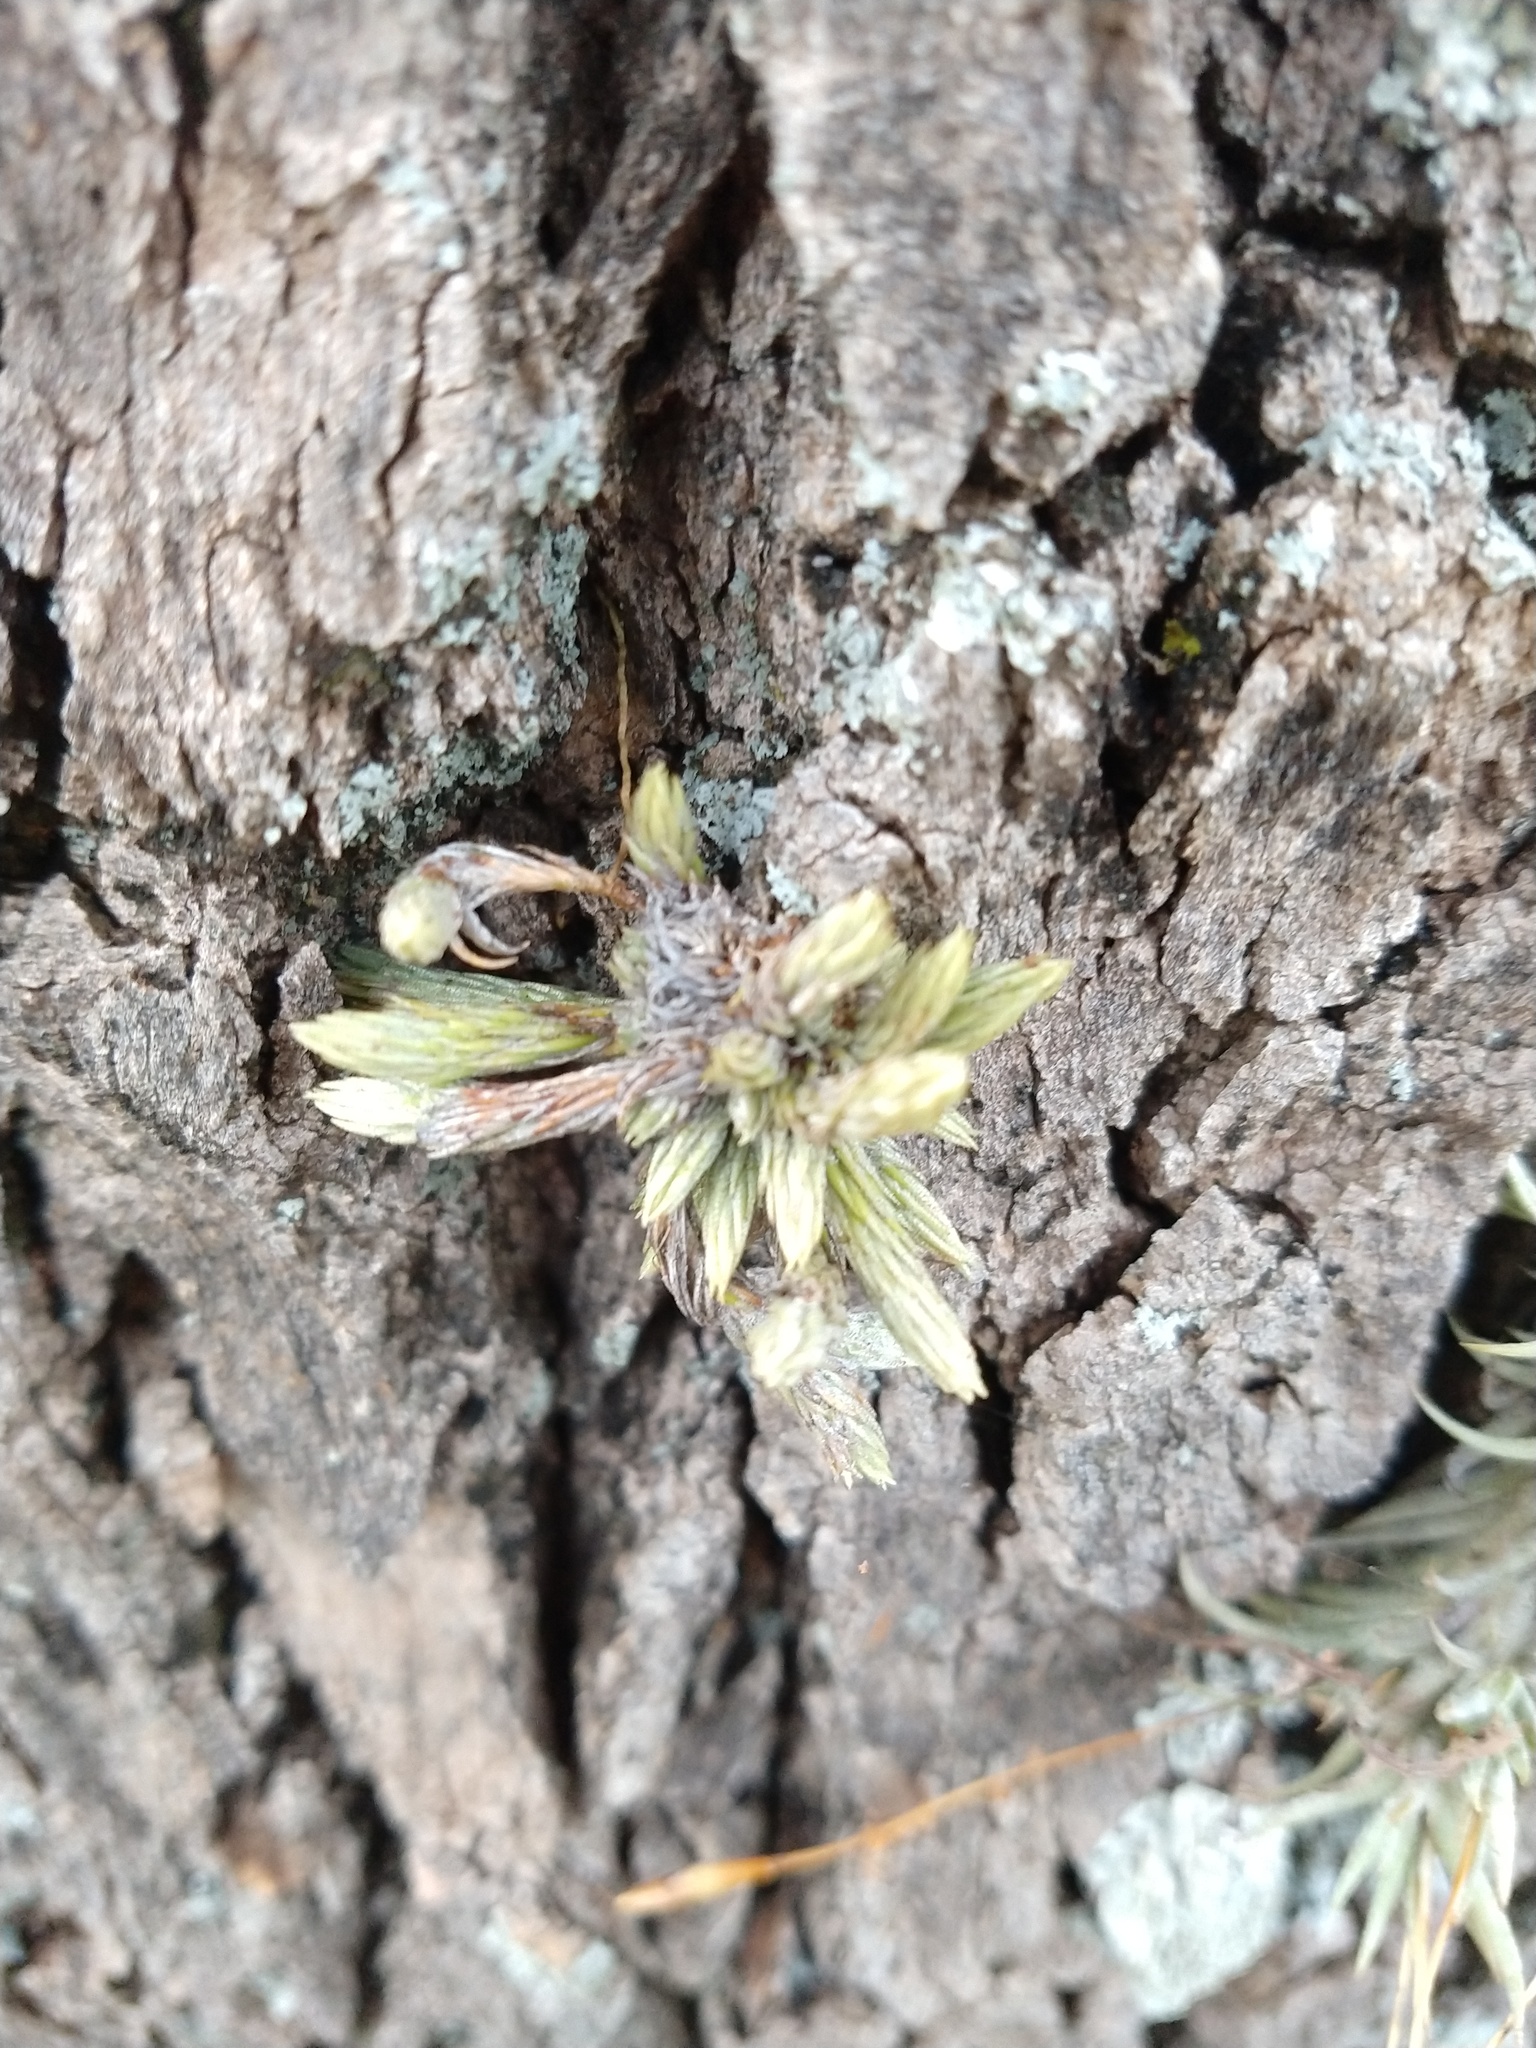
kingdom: Plantae
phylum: Tracheophyta
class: Liliopsida
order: Poales
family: Bromeliaceae
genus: Tillandsia
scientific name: Tillandsia minutiflora
